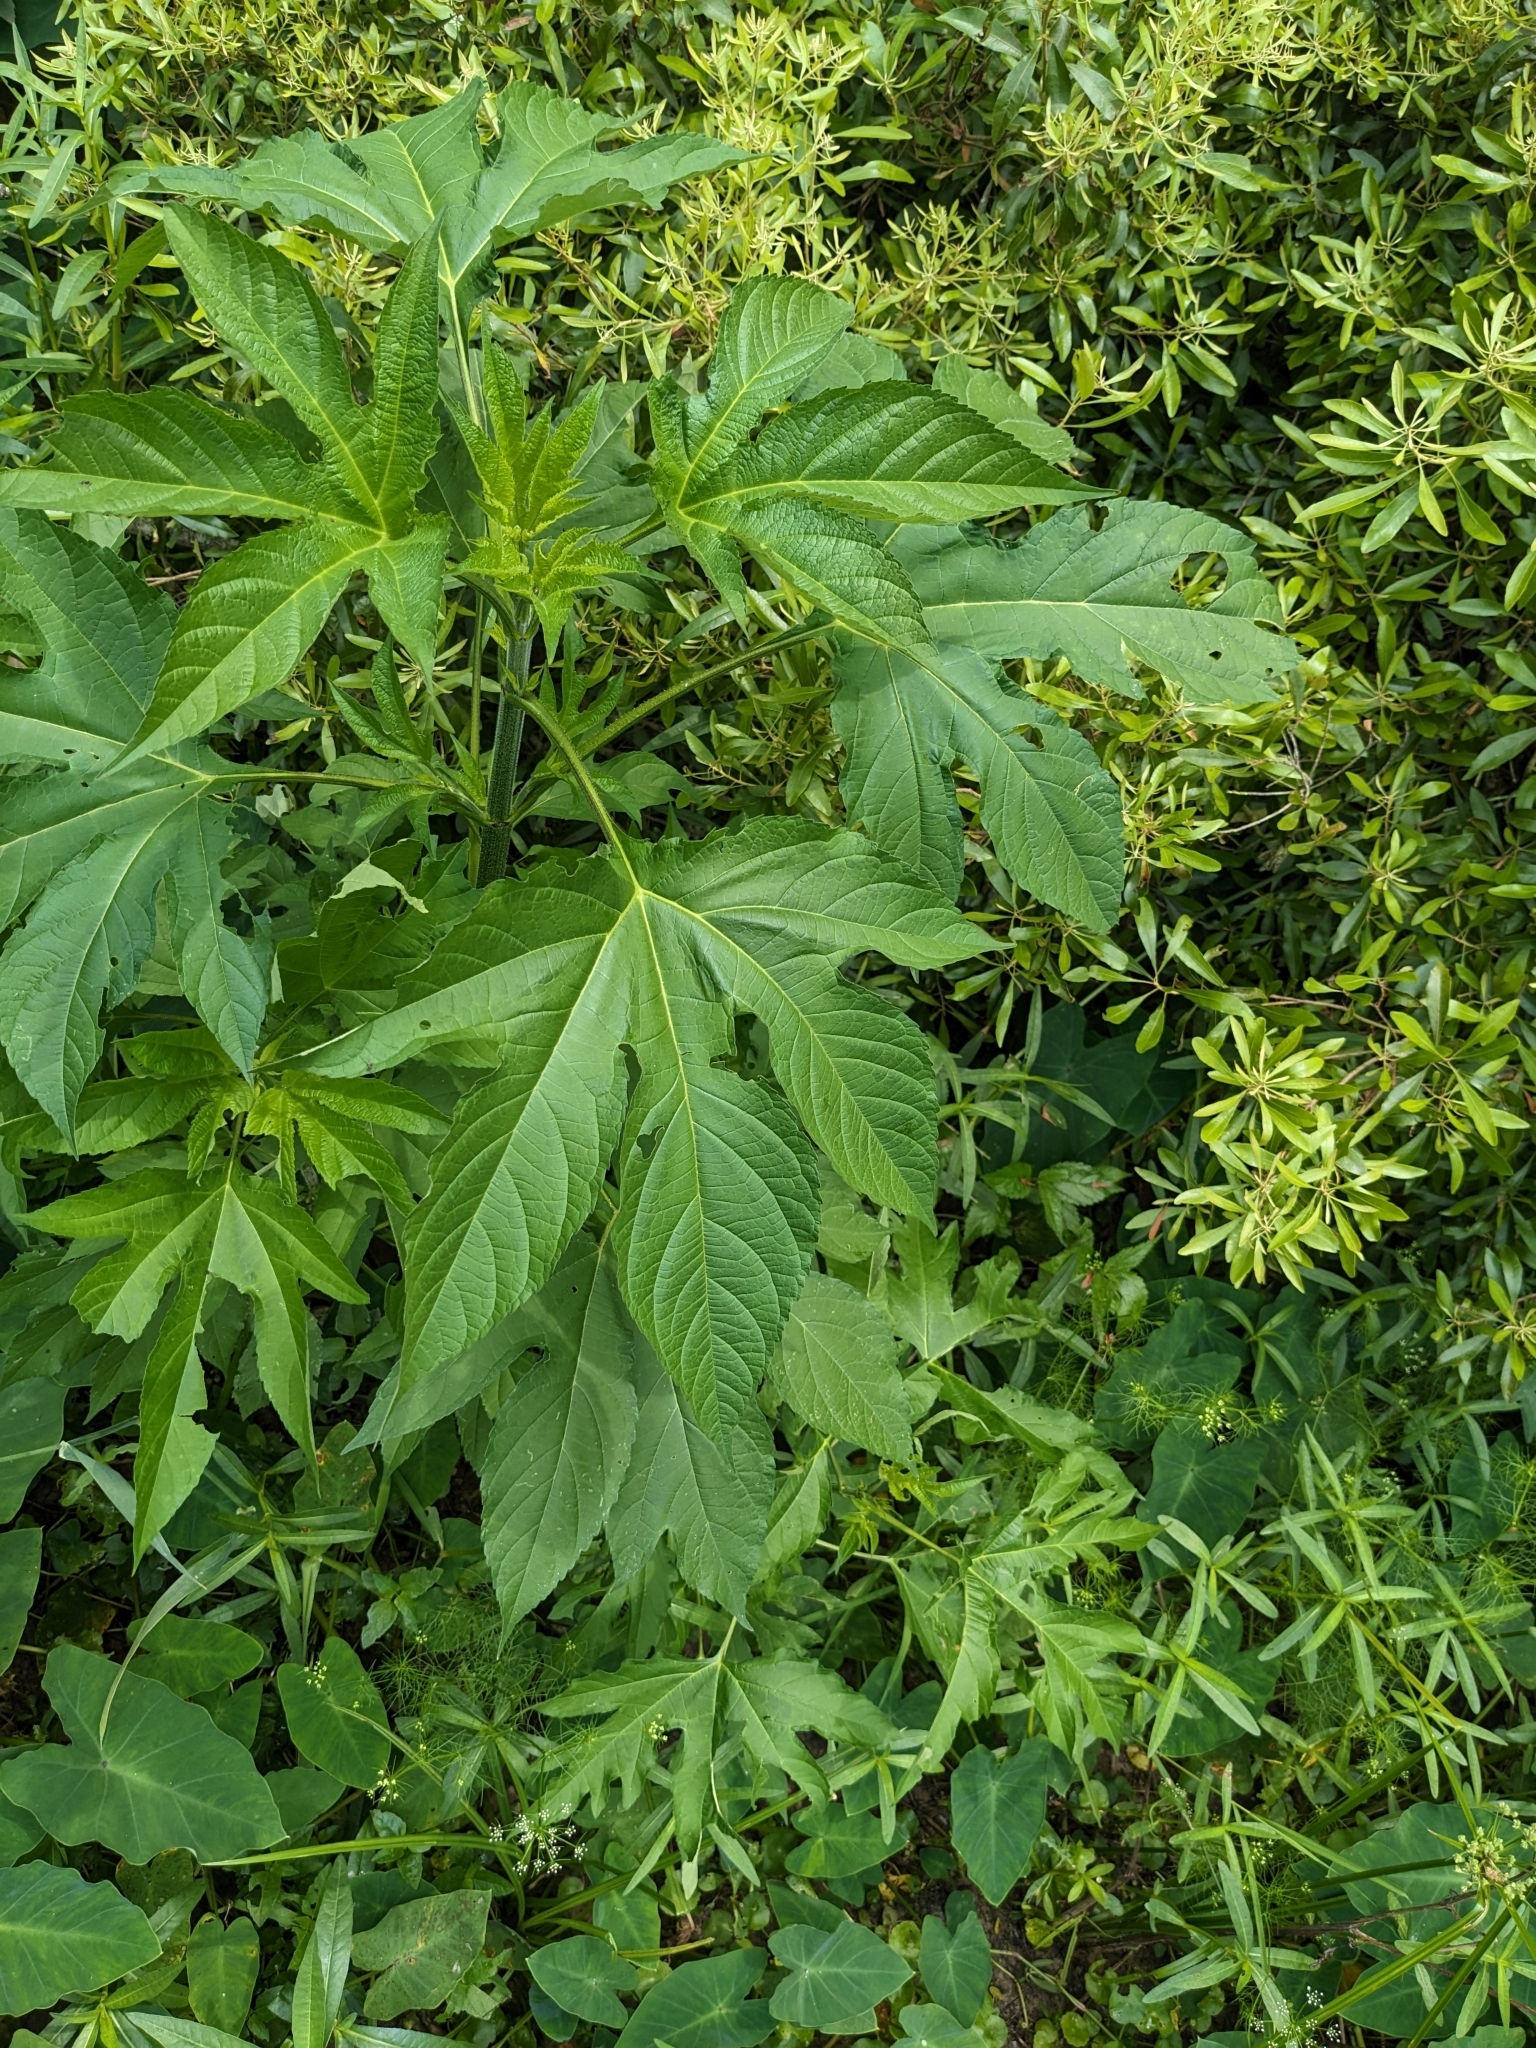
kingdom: Plantae
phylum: Tracheophyta
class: Magnoliopsida
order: Asterales
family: Asteraceae
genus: Ambrosia
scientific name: Ambrosia trifida
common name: Giant ragweed
